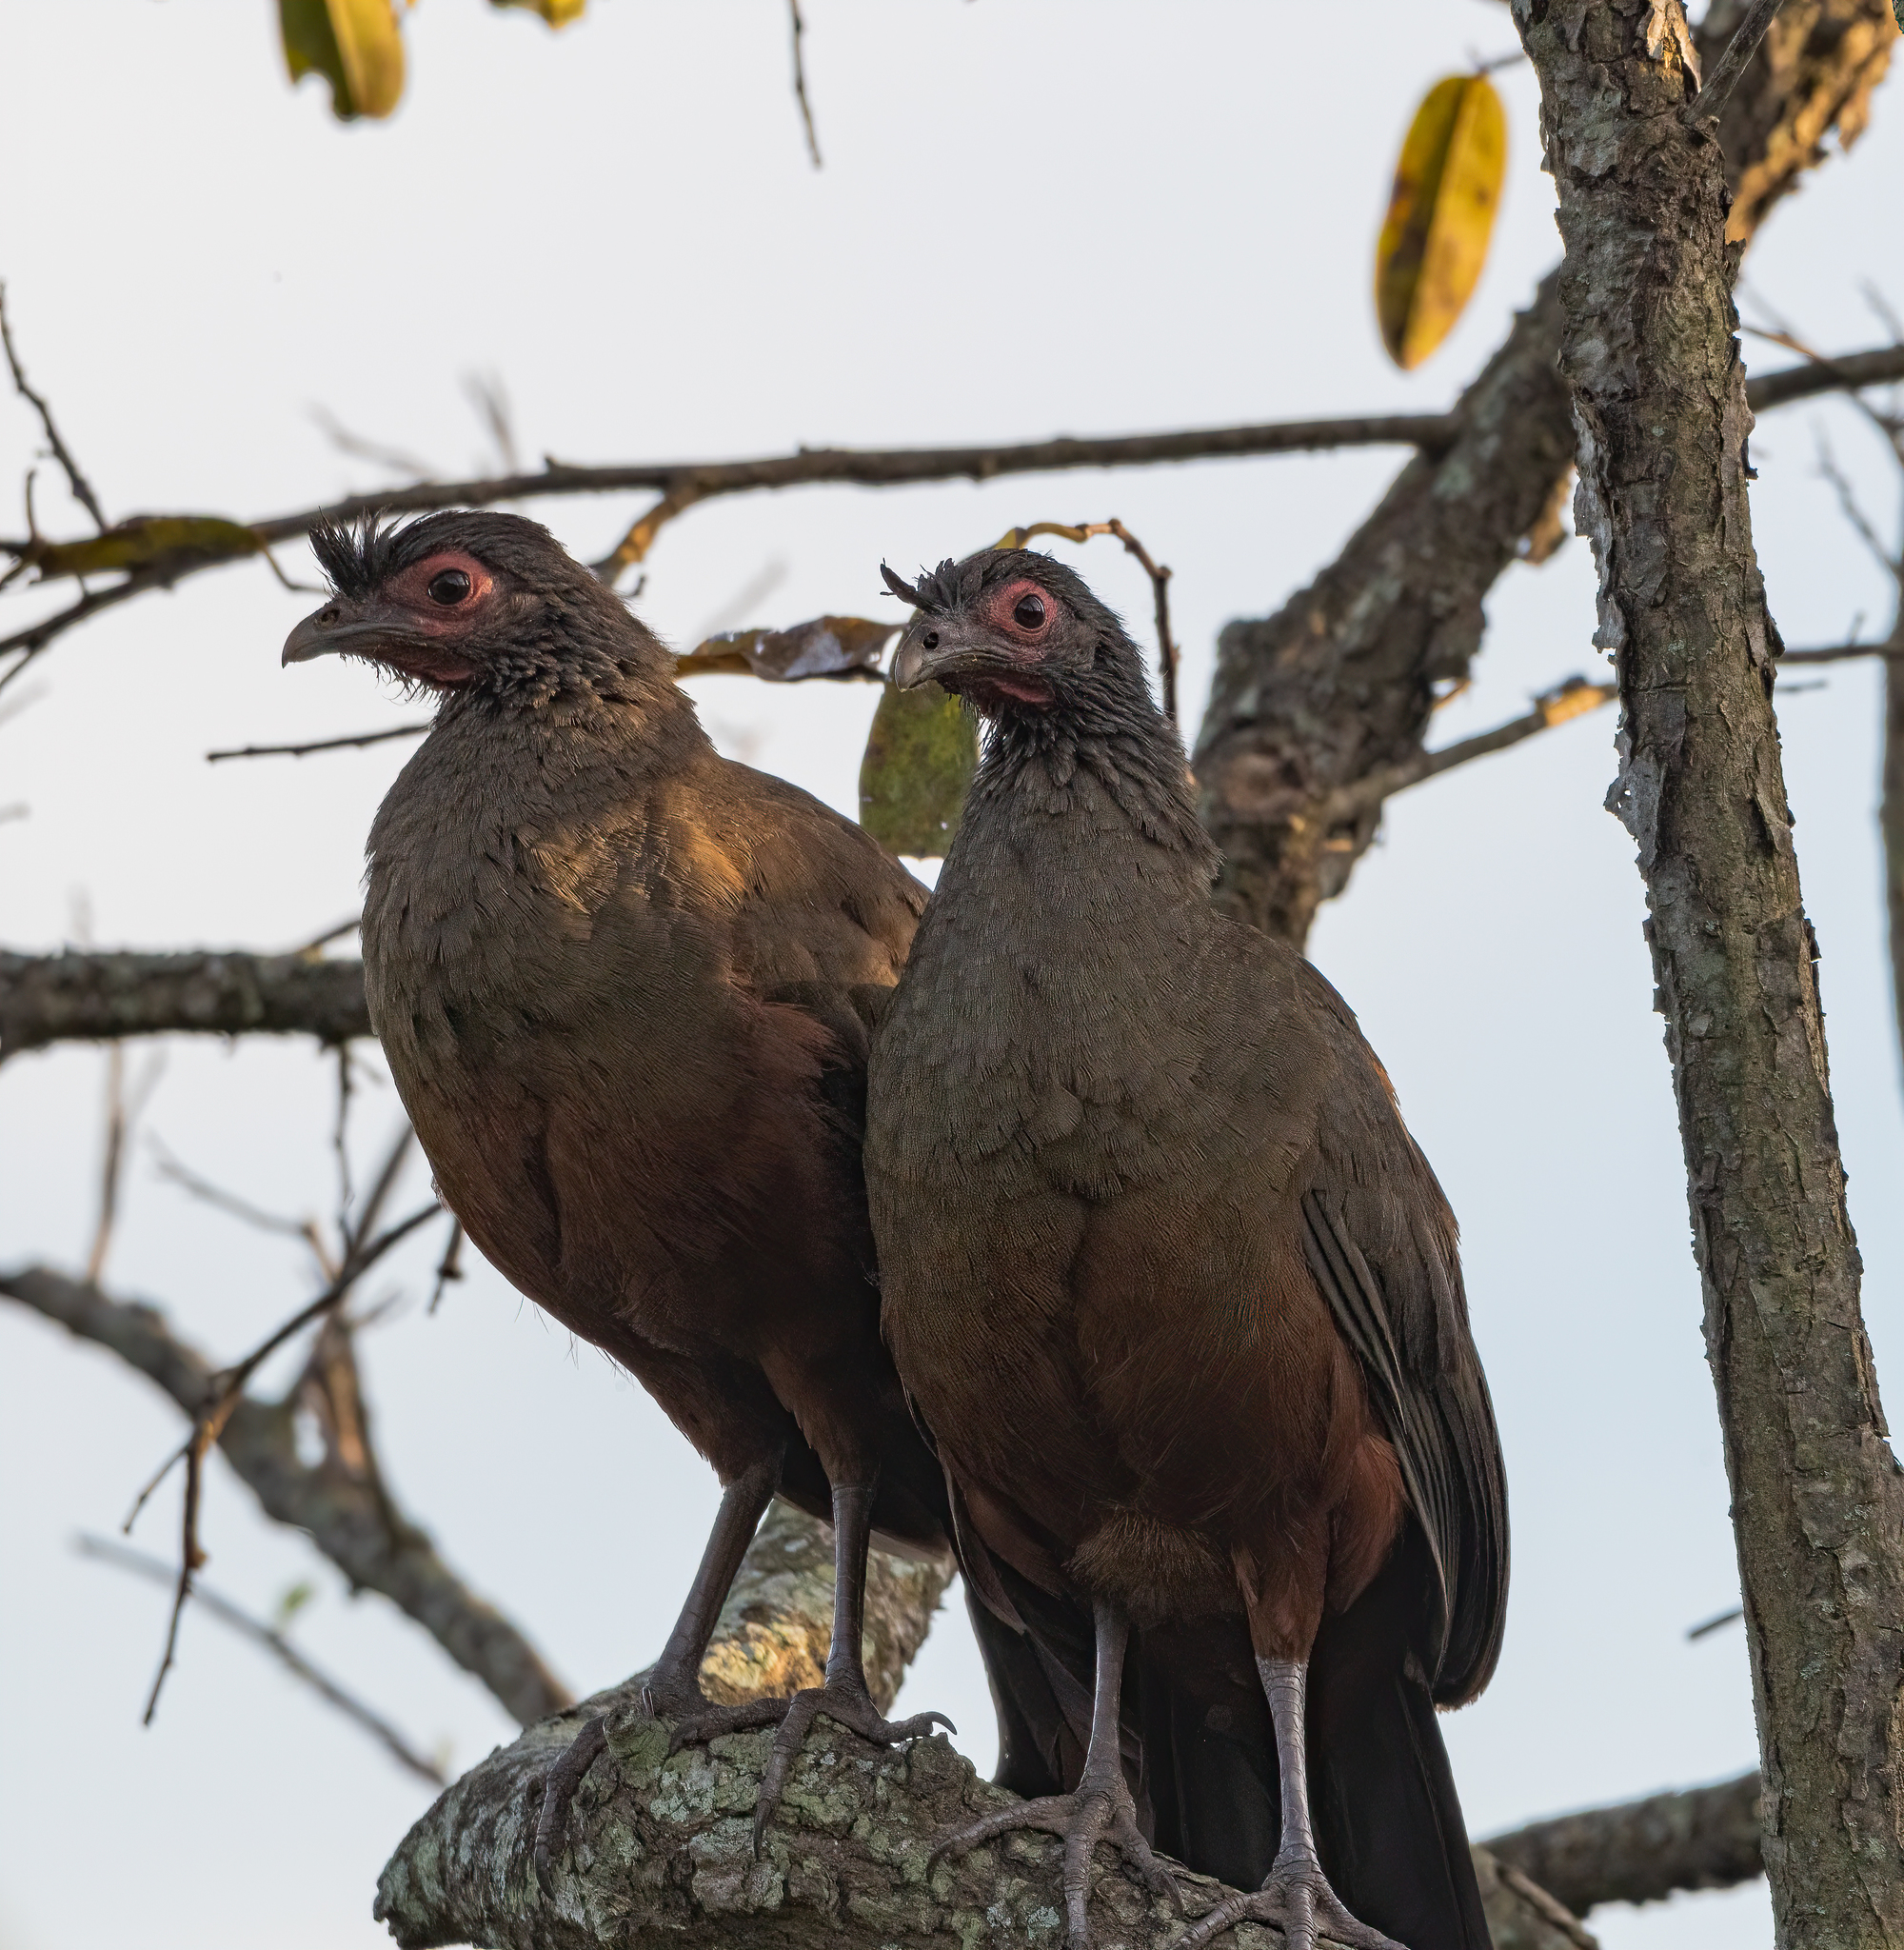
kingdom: Animalia
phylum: Chordata
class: Aves
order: Galliformes
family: Cracidae
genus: Ortalis
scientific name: Ortalis wagleri
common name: Rufous-bellied chachalaca
